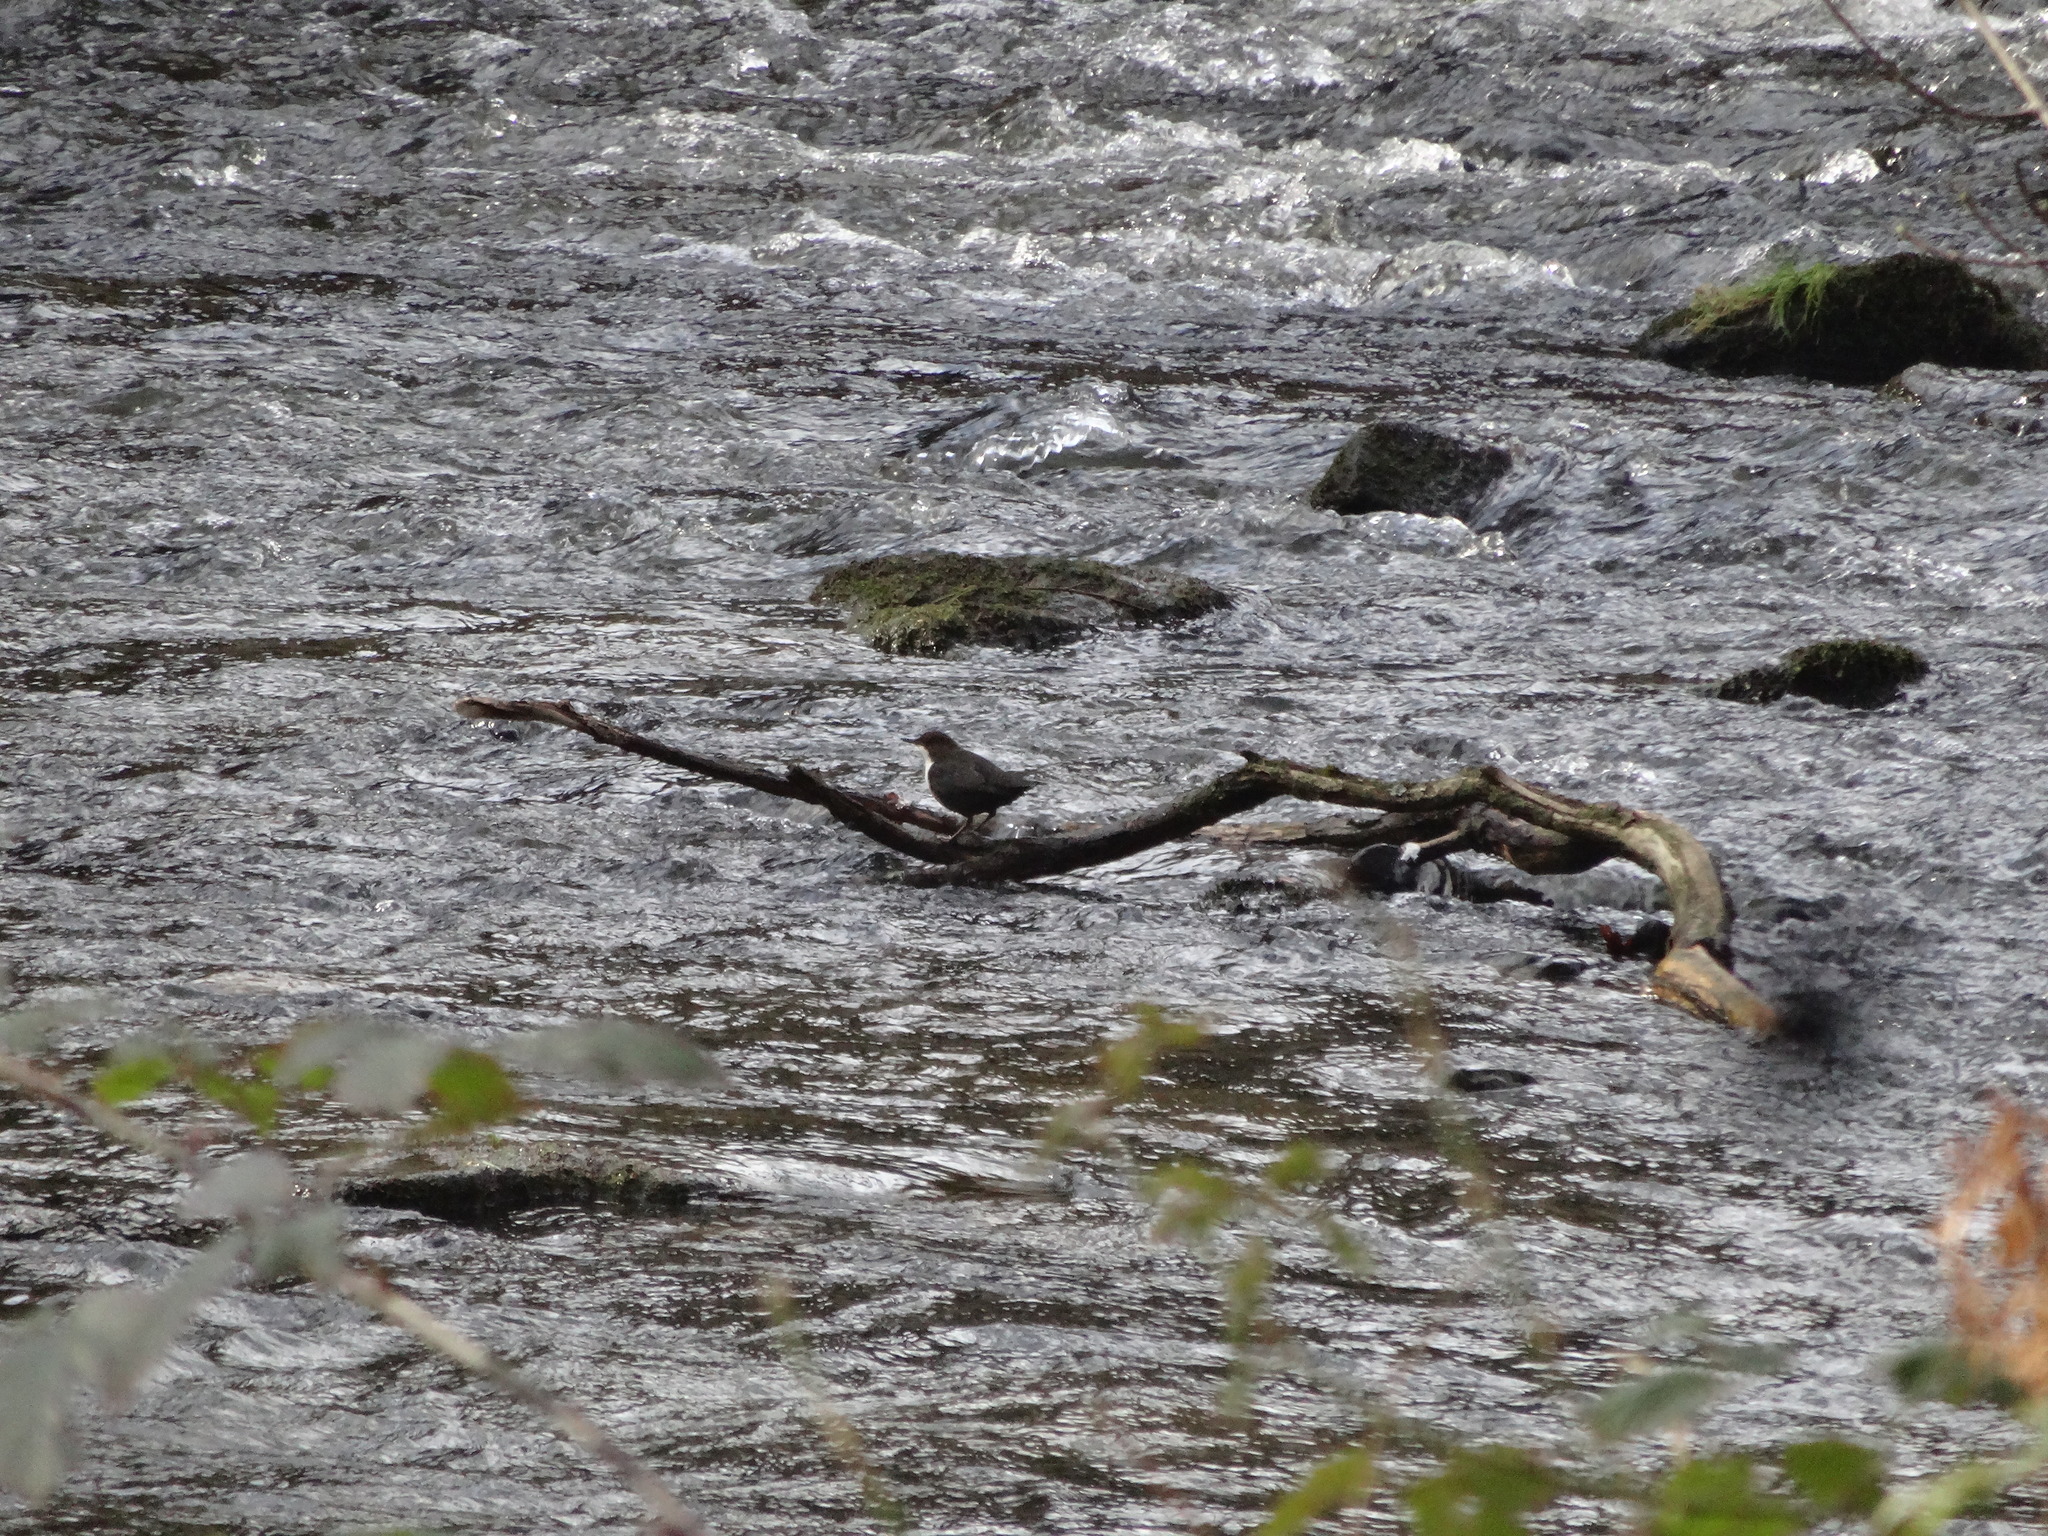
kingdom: Animalia
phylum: Chordata
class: Aves
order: Passeriformes
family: Cinclidae
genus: Cinclus
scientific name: Cinclus cinclus
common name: White-throated dipper
